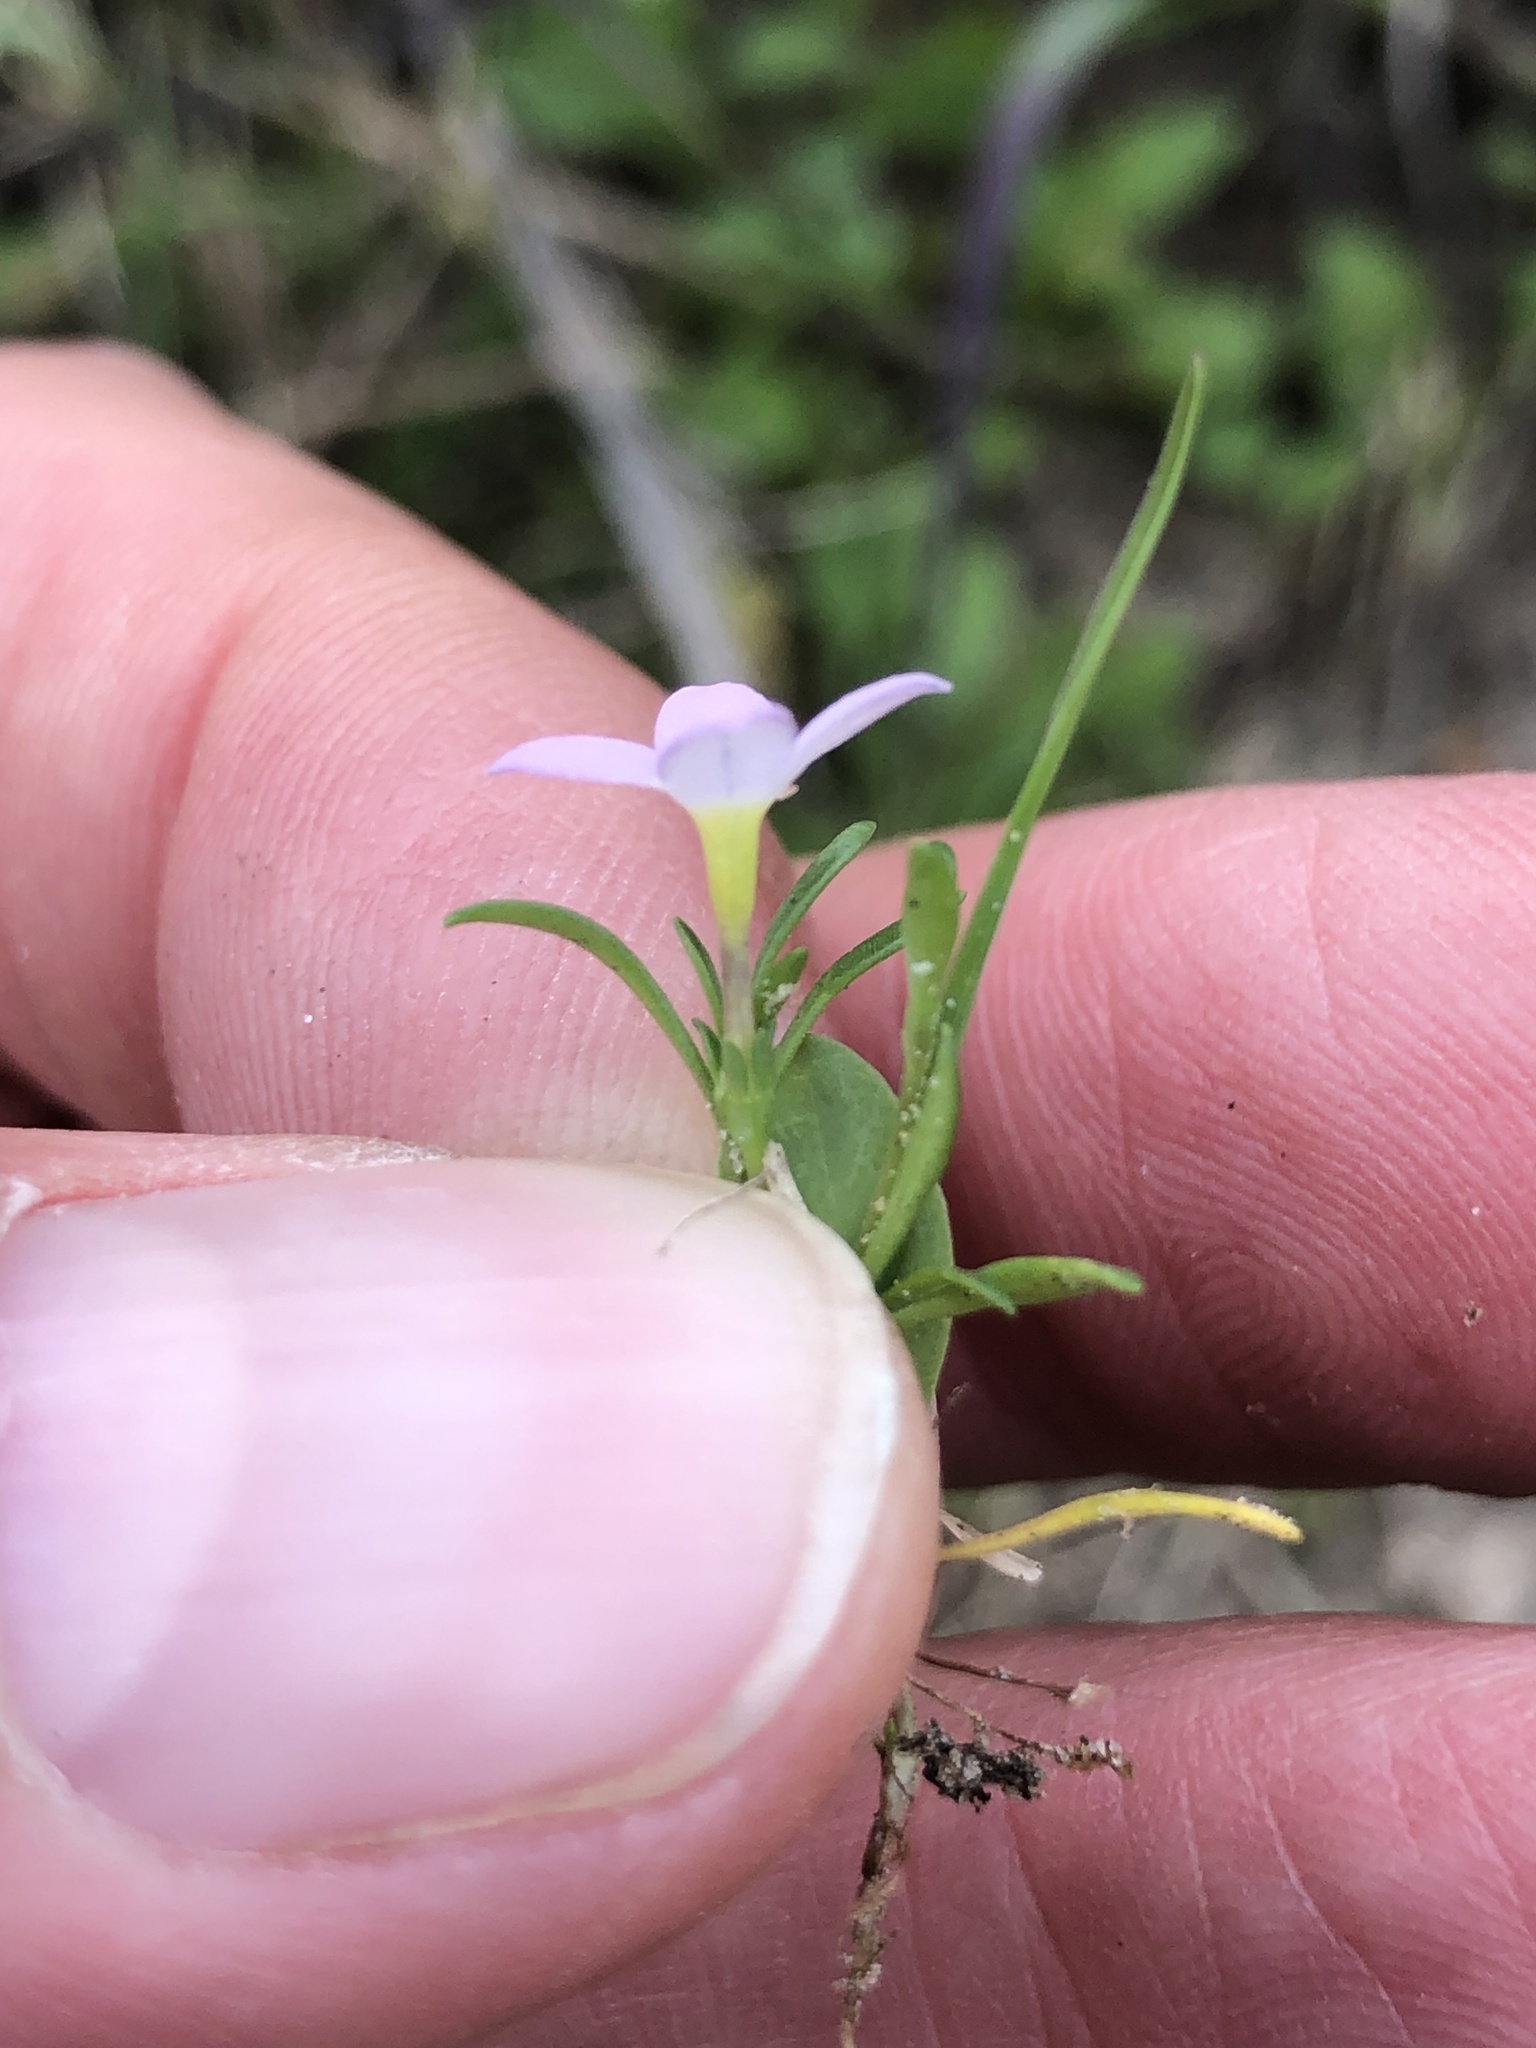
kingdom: Plantae
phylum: Tracheophyta
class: Magnoliopsida
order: Gentianales
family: Rubiaceae
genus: Houstonia
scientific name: Houstonia rosea
